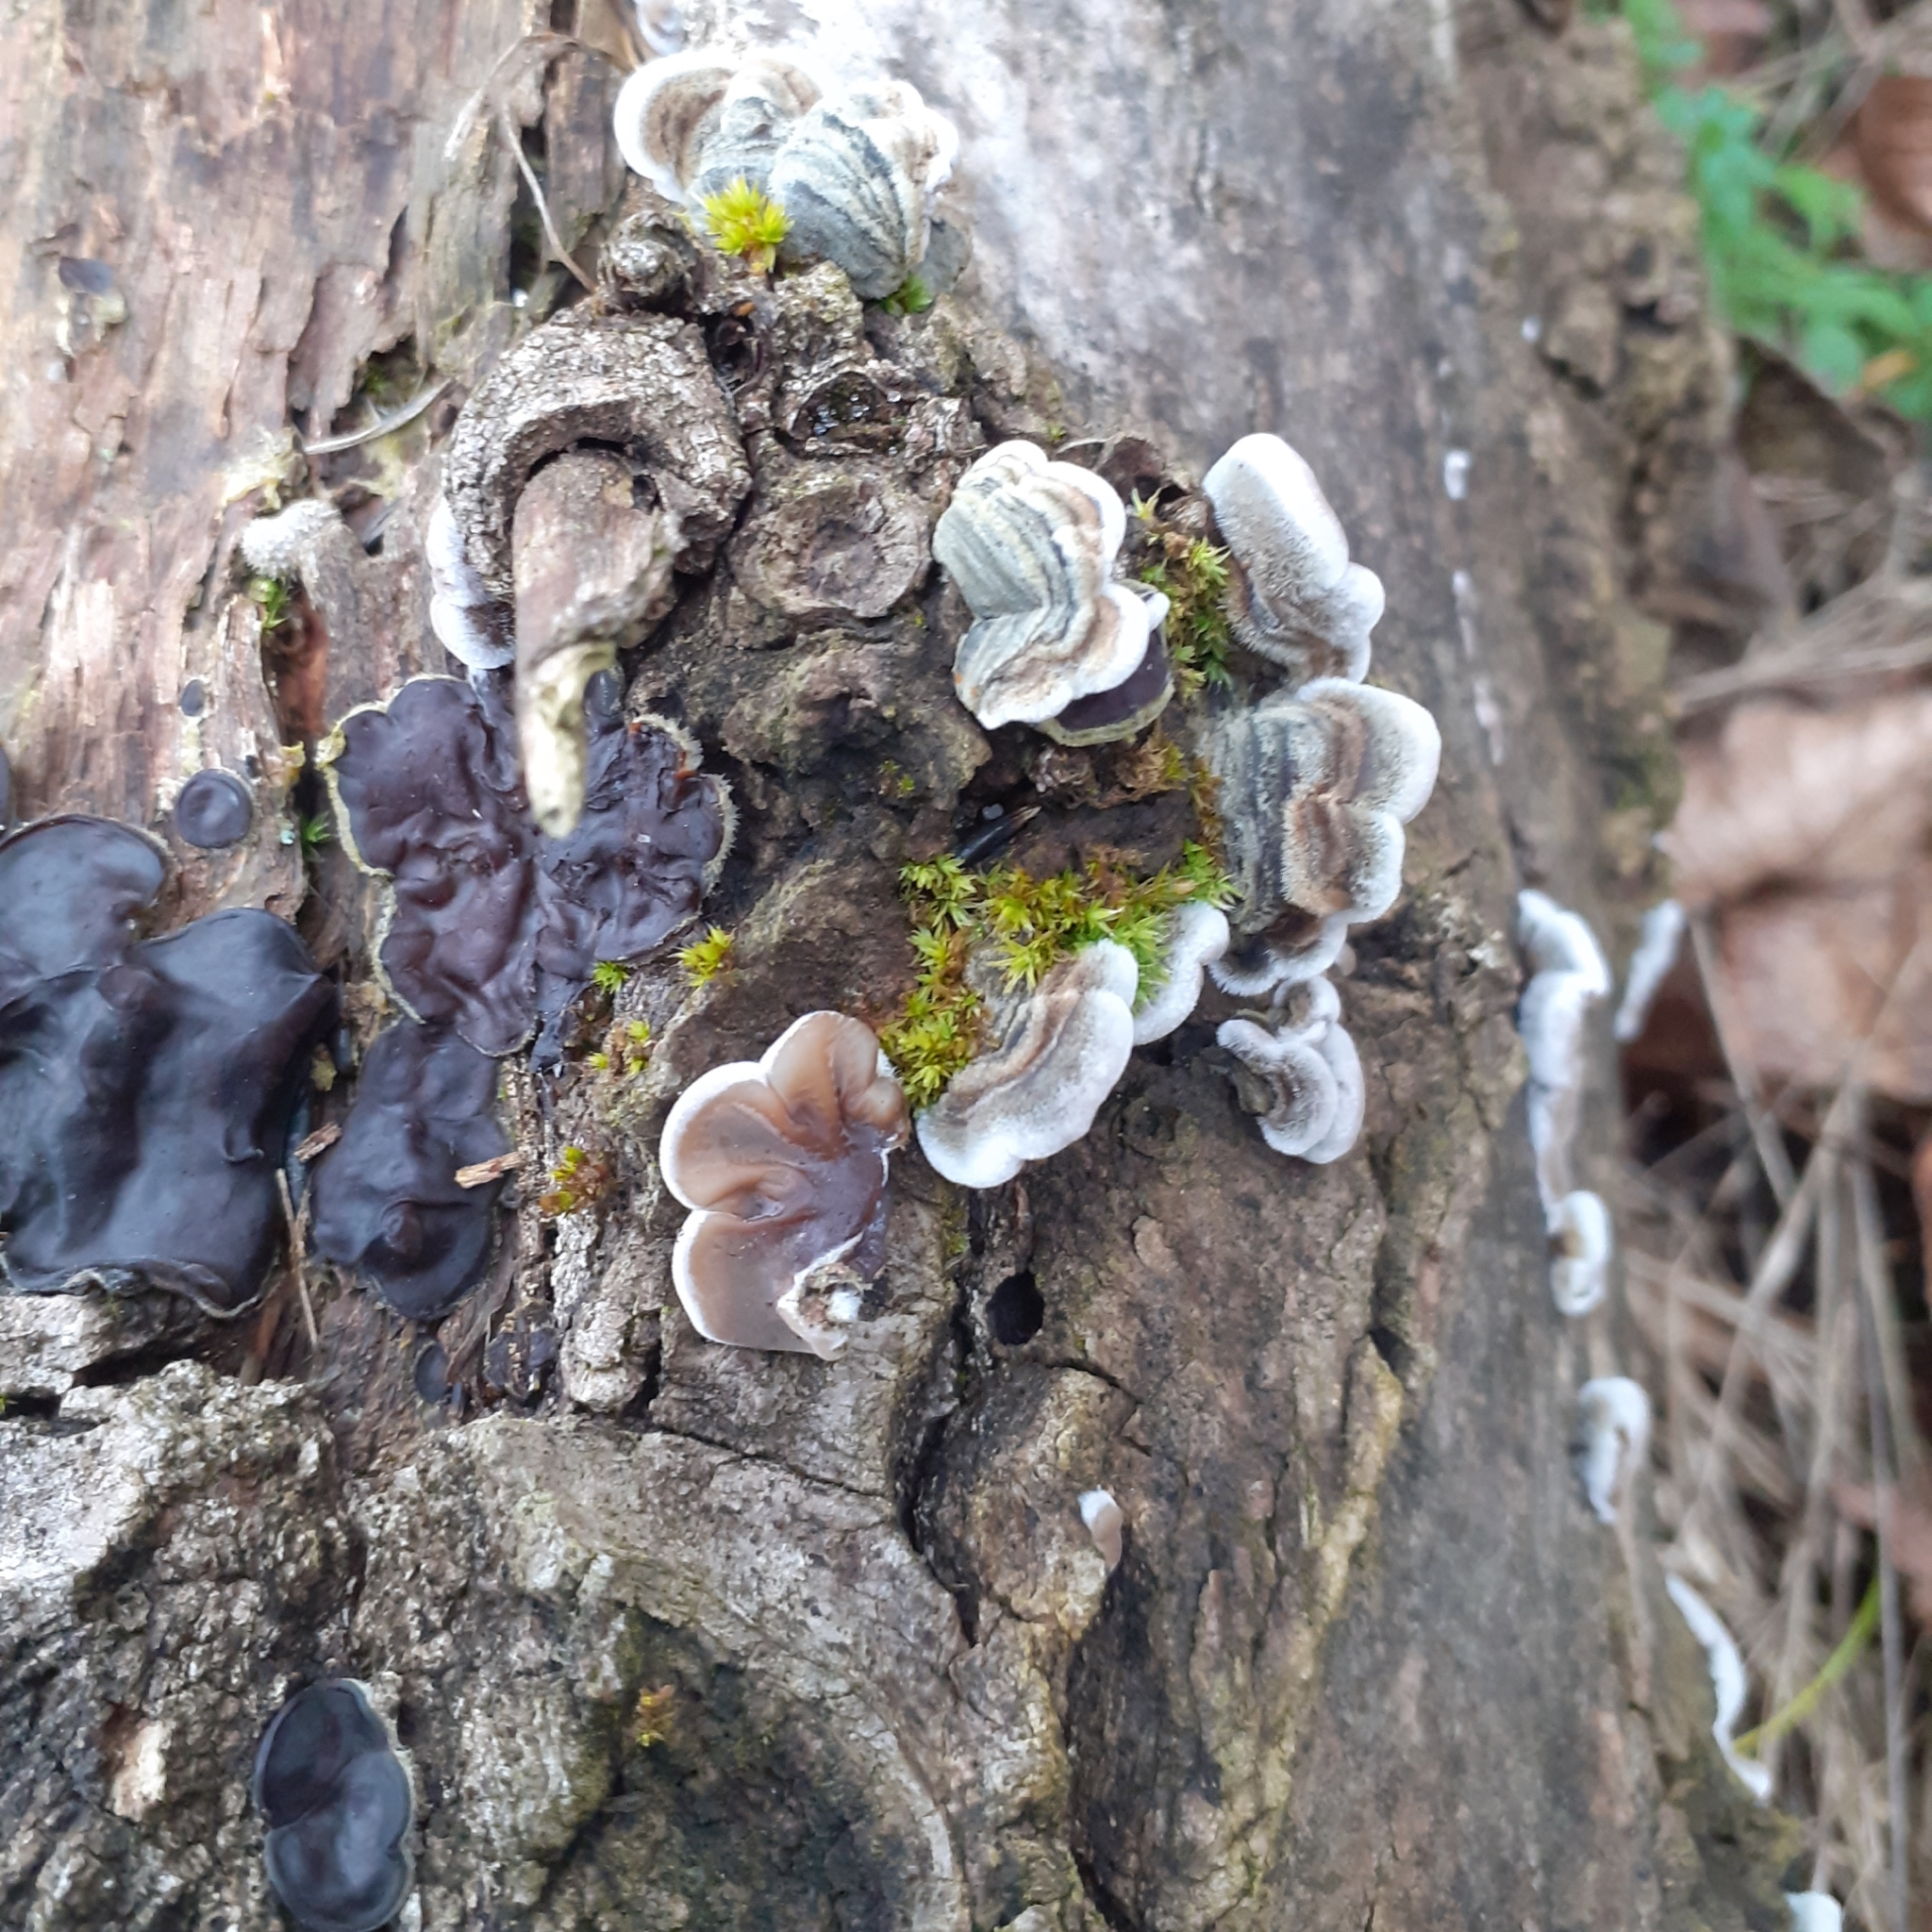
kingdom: Fungi
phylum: Basidiomycota
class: Agaricomycetes
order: Auriculariales
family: Auriculariaceae
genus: Auricularia
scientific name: Auricularia mesenterica
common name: Tripe fungus
